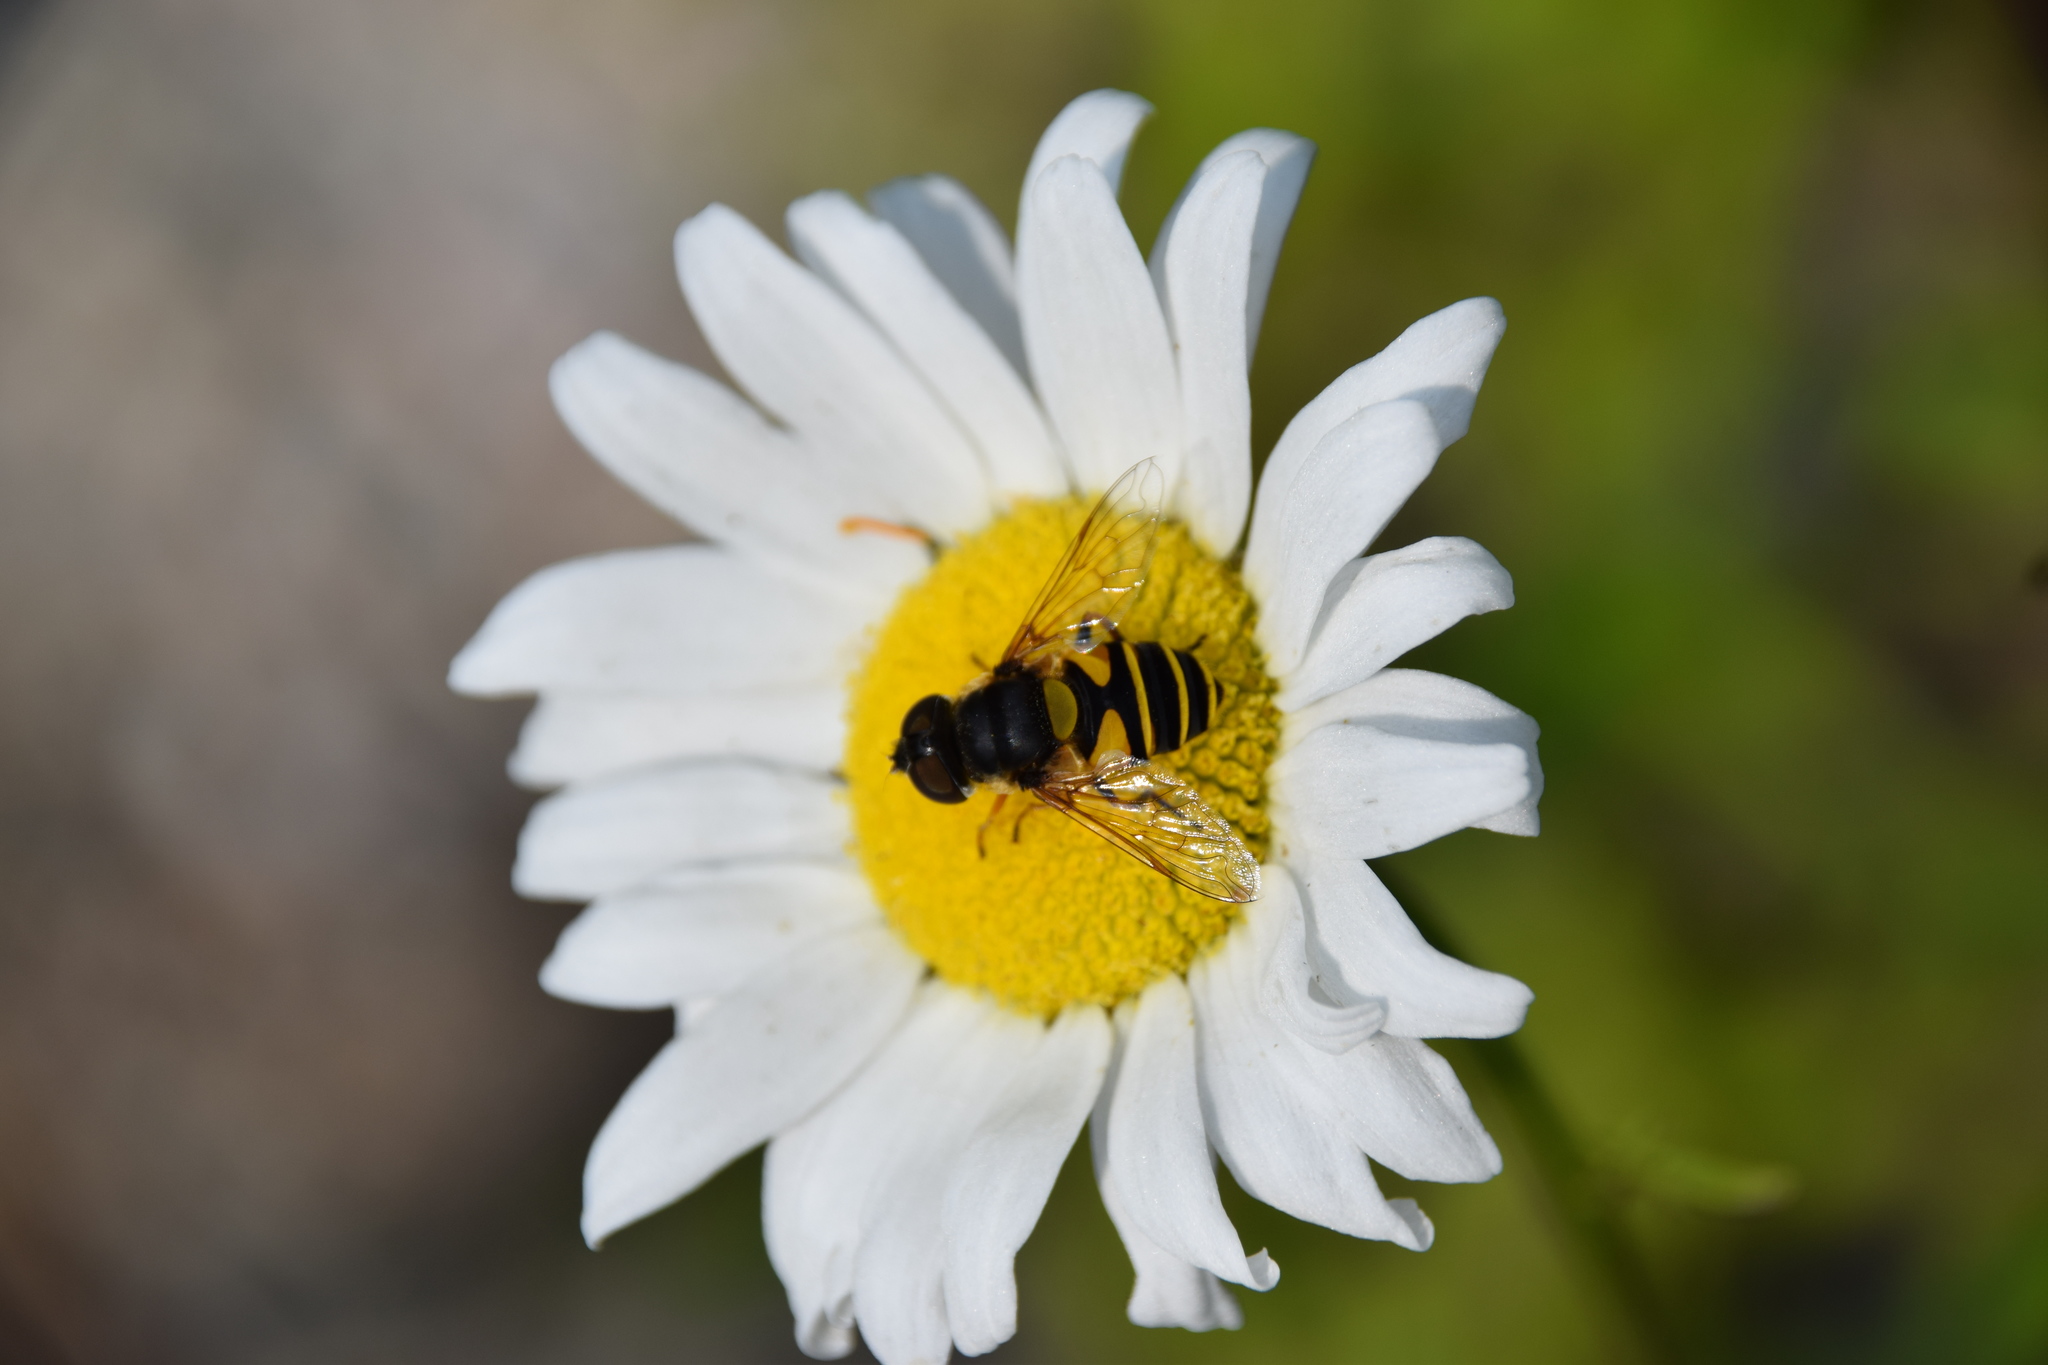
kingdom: Animalia
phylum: Arthropoda
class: Insecta
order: Diptera
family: Syrphidae
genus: Eristalis
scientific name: Eristalis transversa
